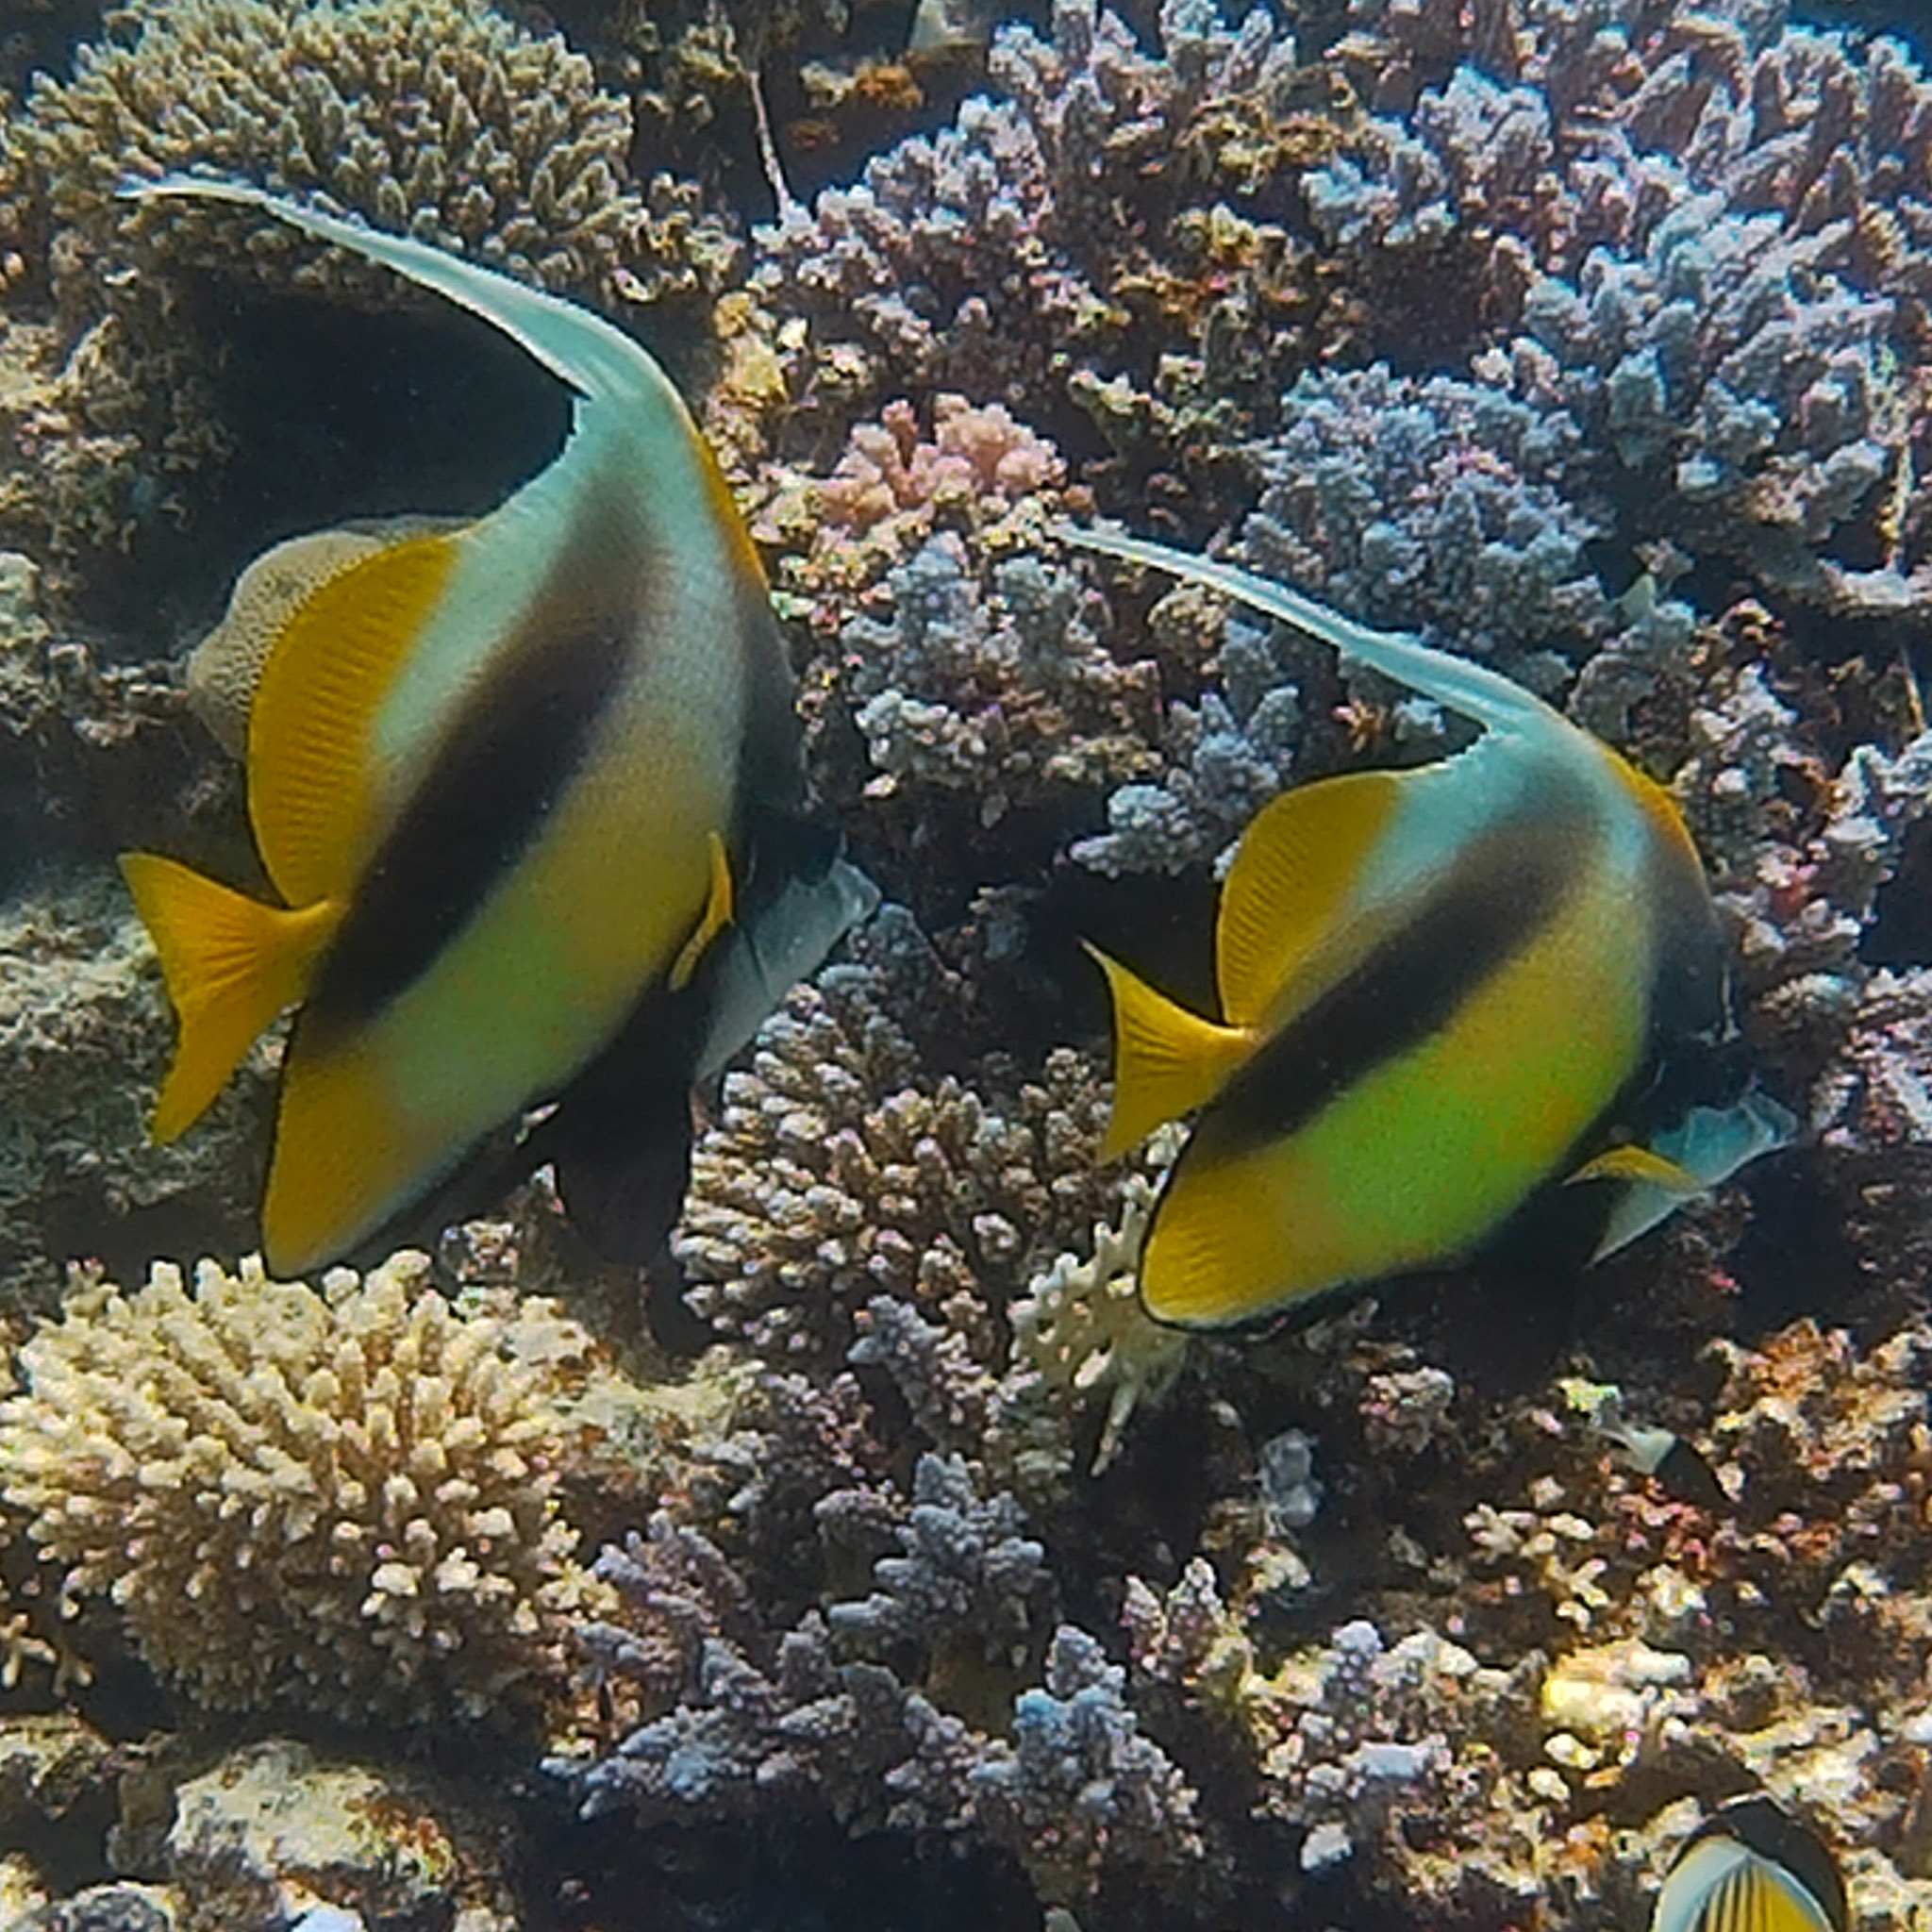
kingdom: Animalia
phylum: Chordata
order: Perciformes
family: Chaetodontidae
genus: Heniochus
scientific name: Heniochus intermedius
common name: Red sea bannerfish
